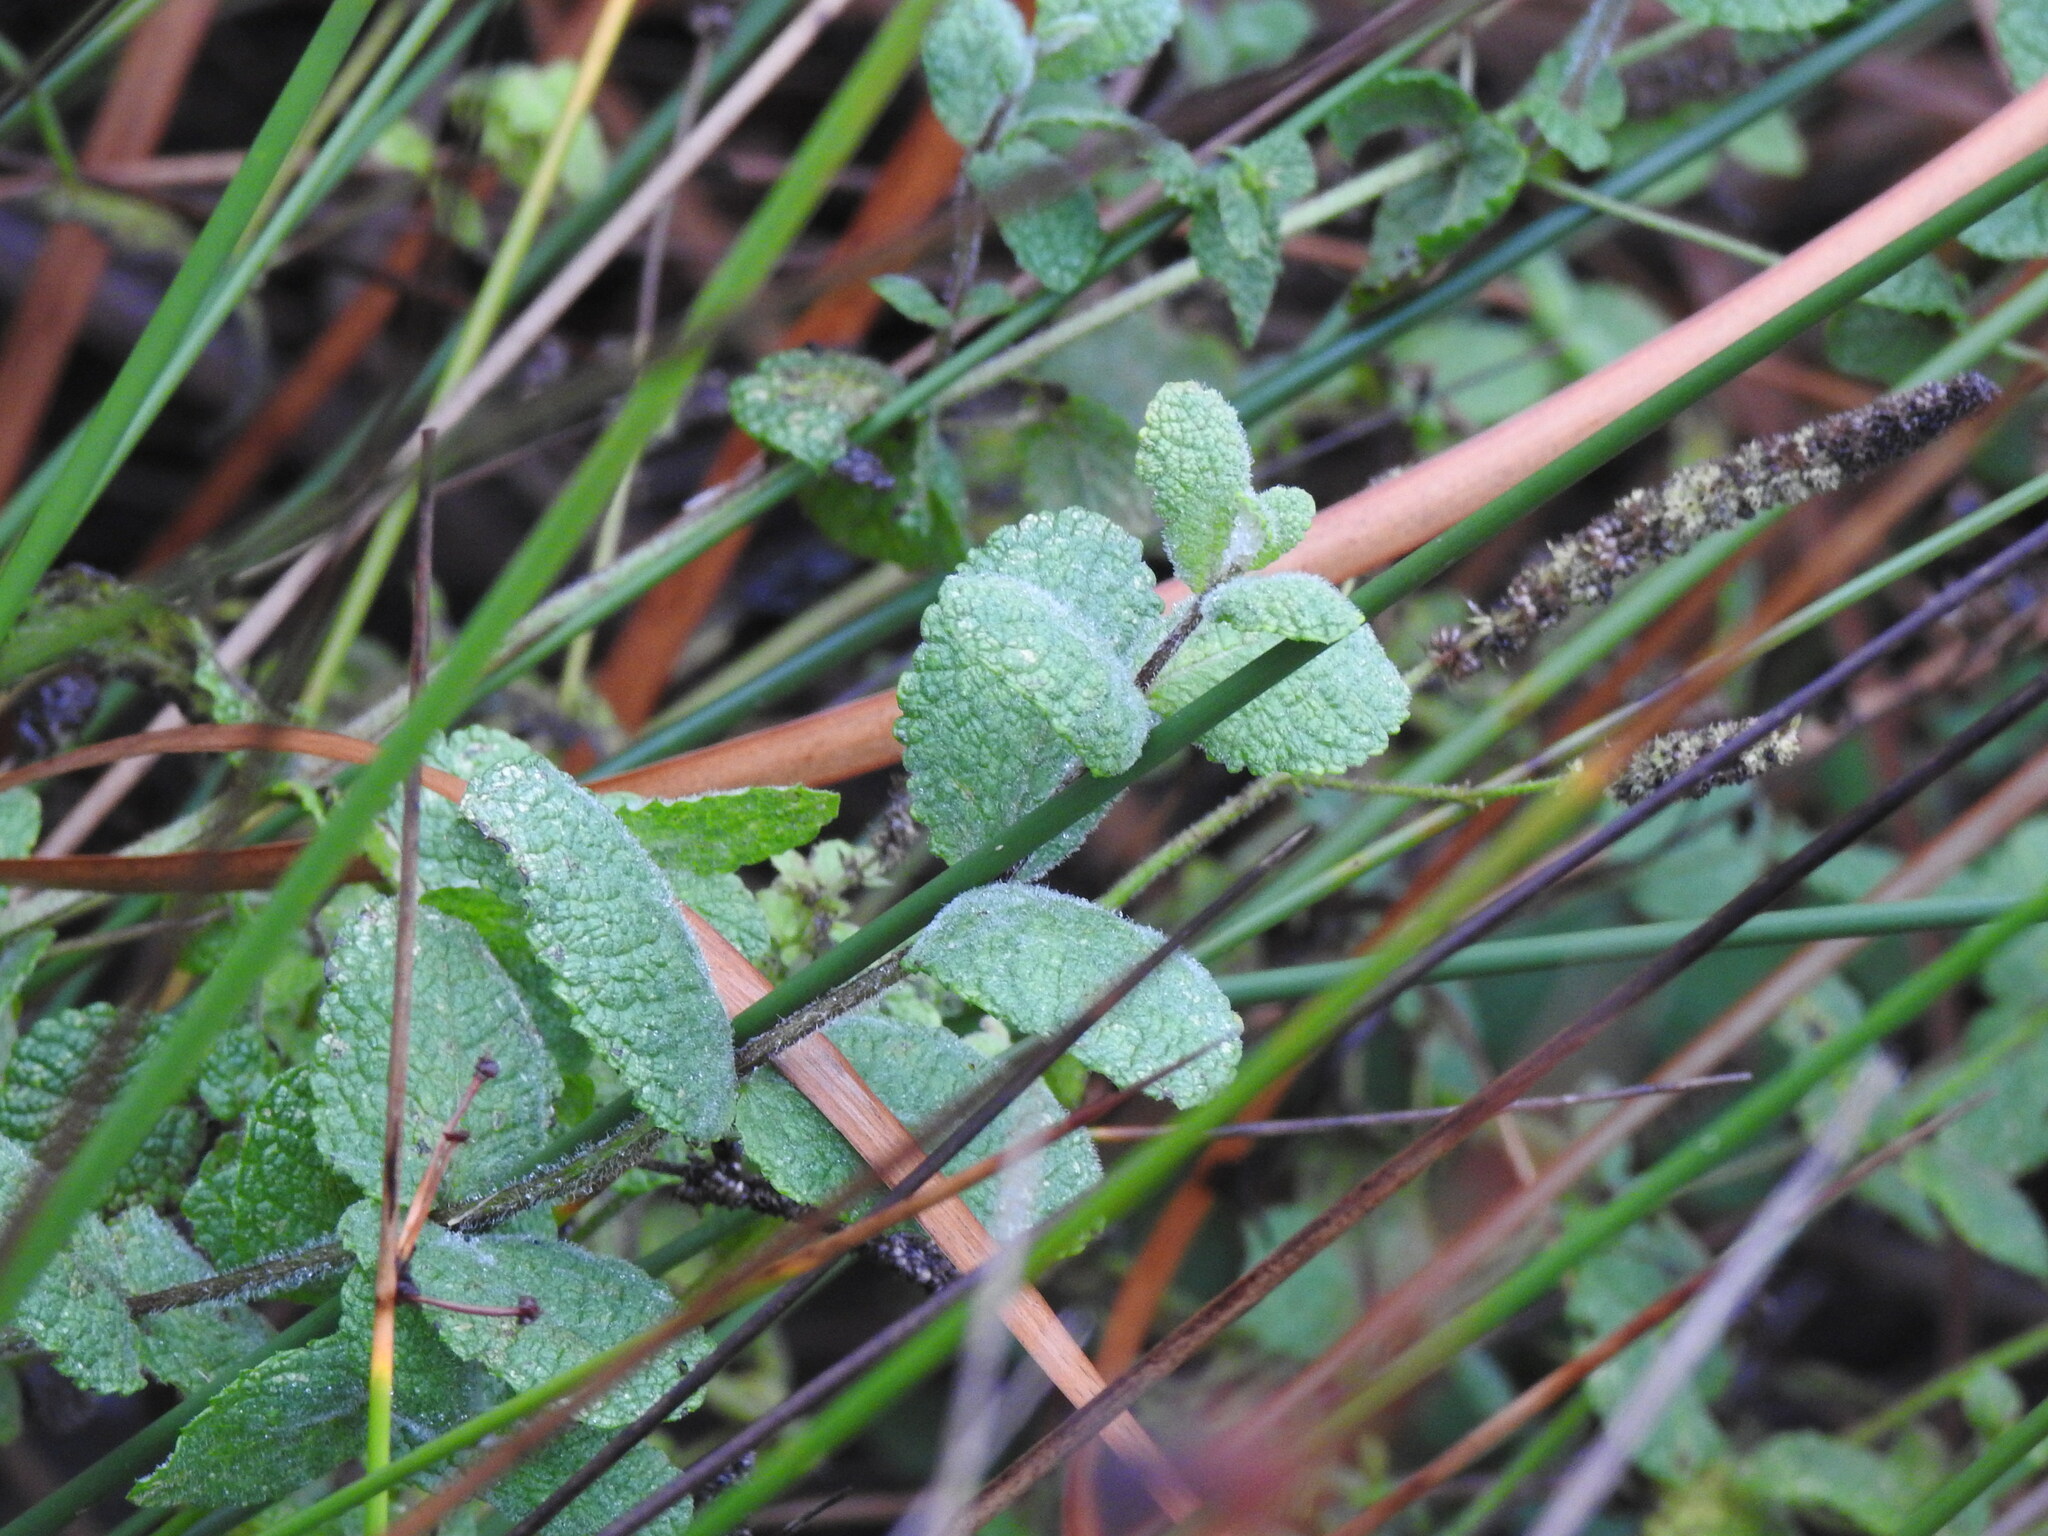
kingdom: Plantae
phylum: Tracheophyta
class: Magnoliopsida
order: Lamiales
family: Lamiaceae
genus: Mentha
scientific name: Mentha suaveolens
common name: Apple mint
